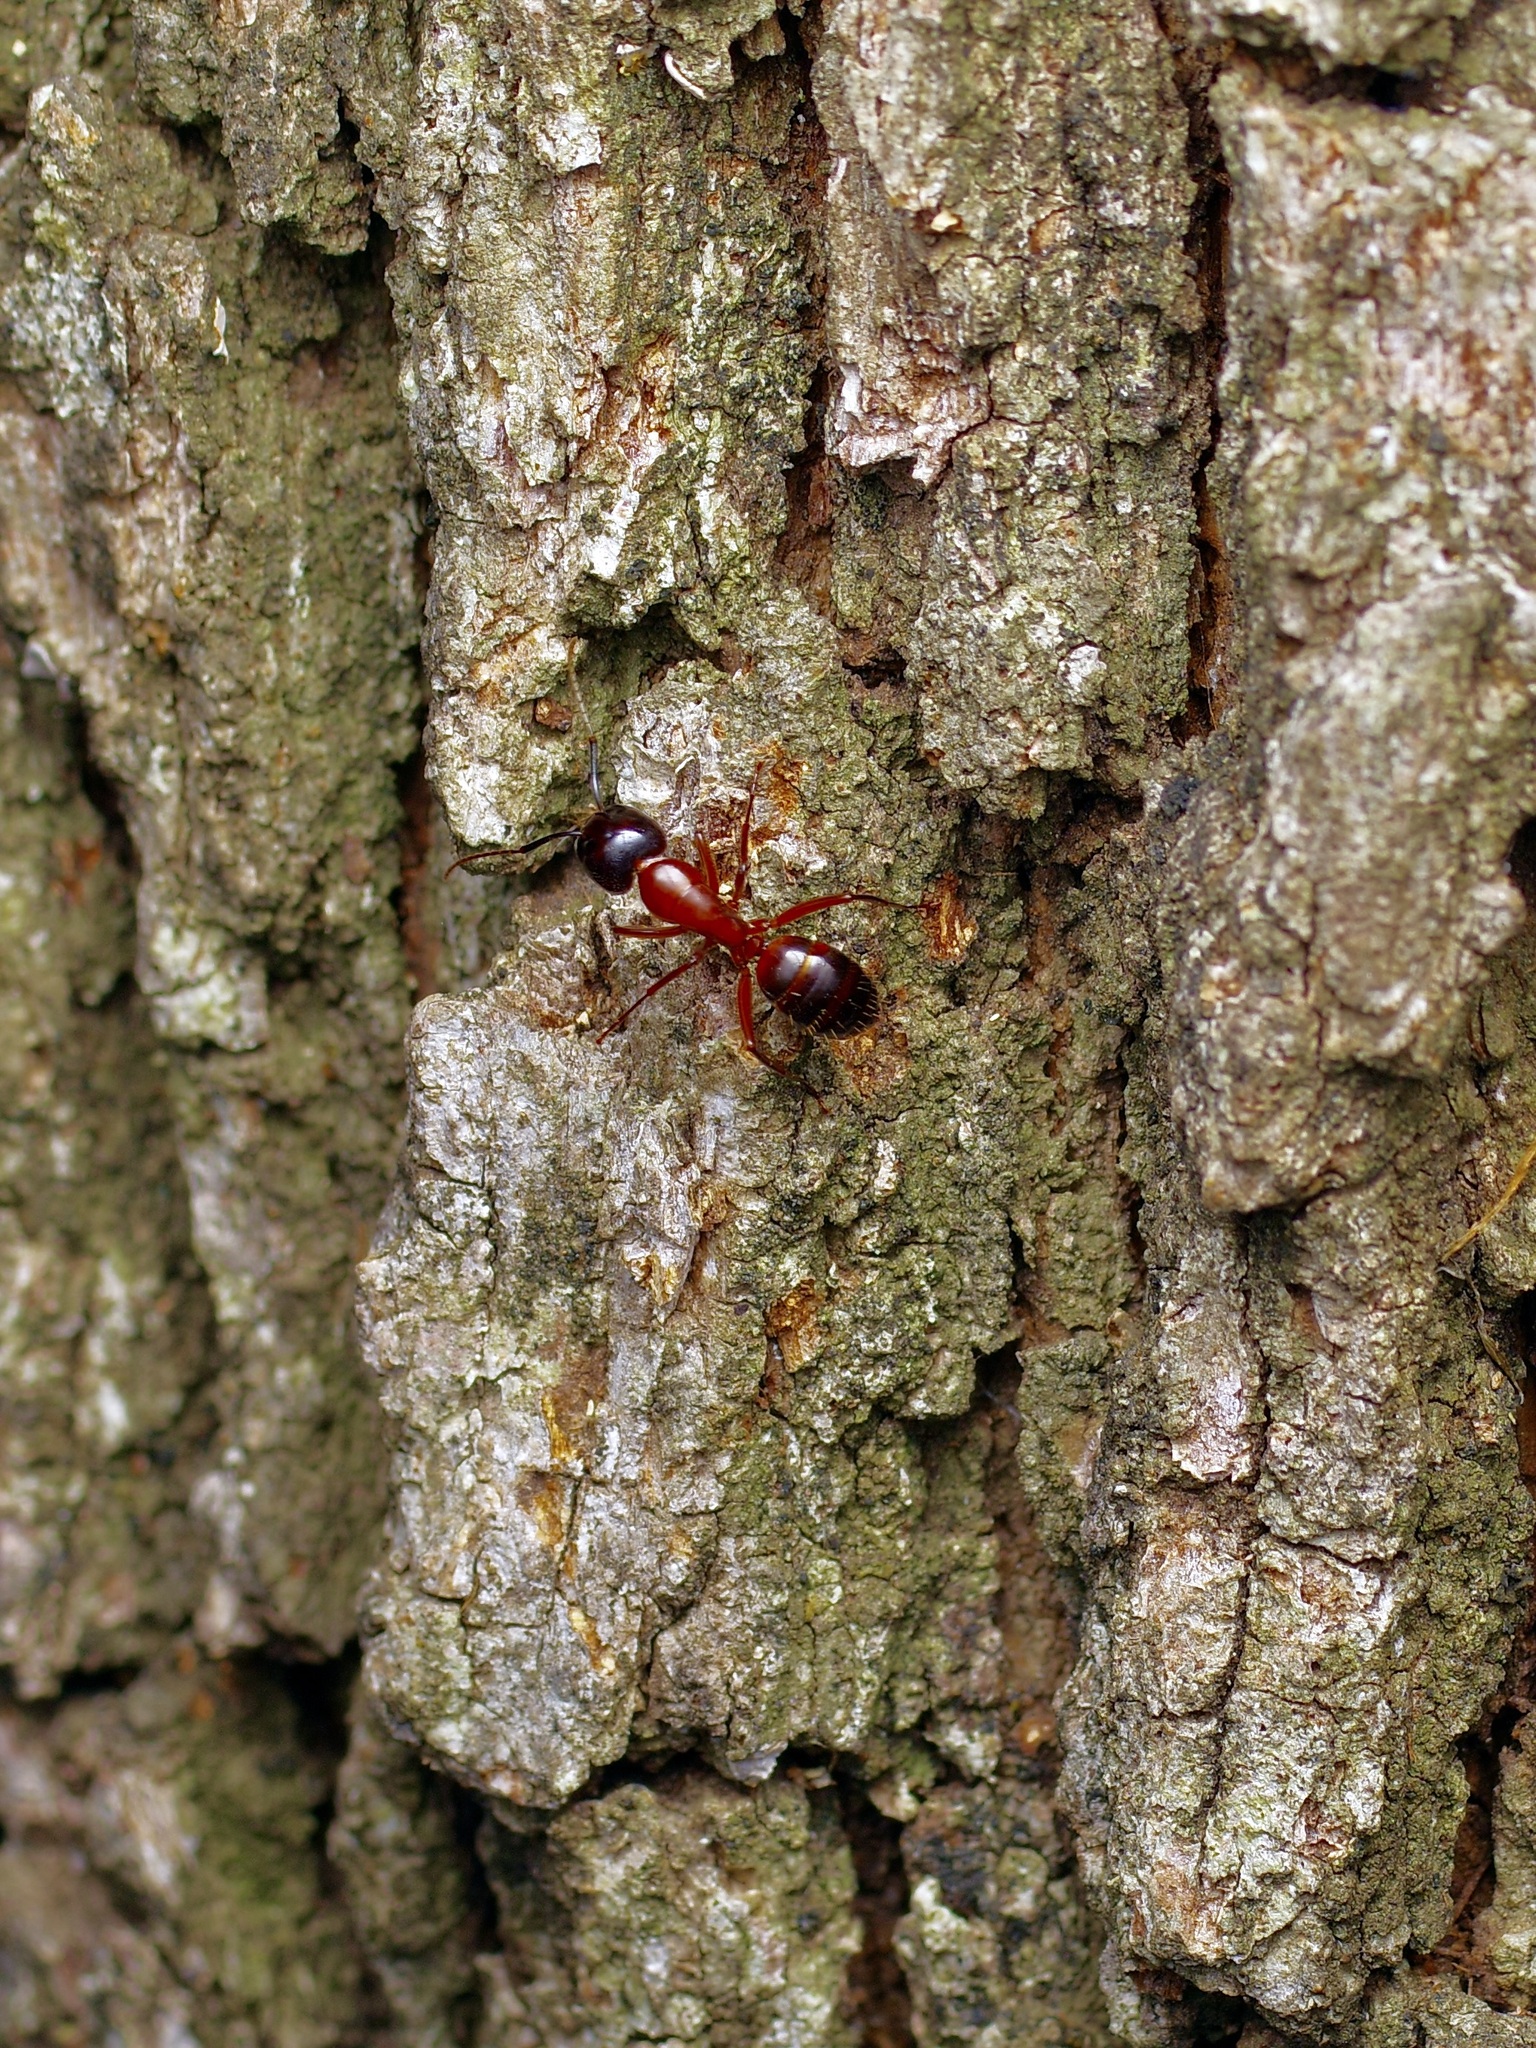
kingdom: Animalia
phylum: Arthropoda
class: Insecta
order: Hymenoptera
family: Formicidae
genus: Camponotus
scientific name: Camponotus texanus
